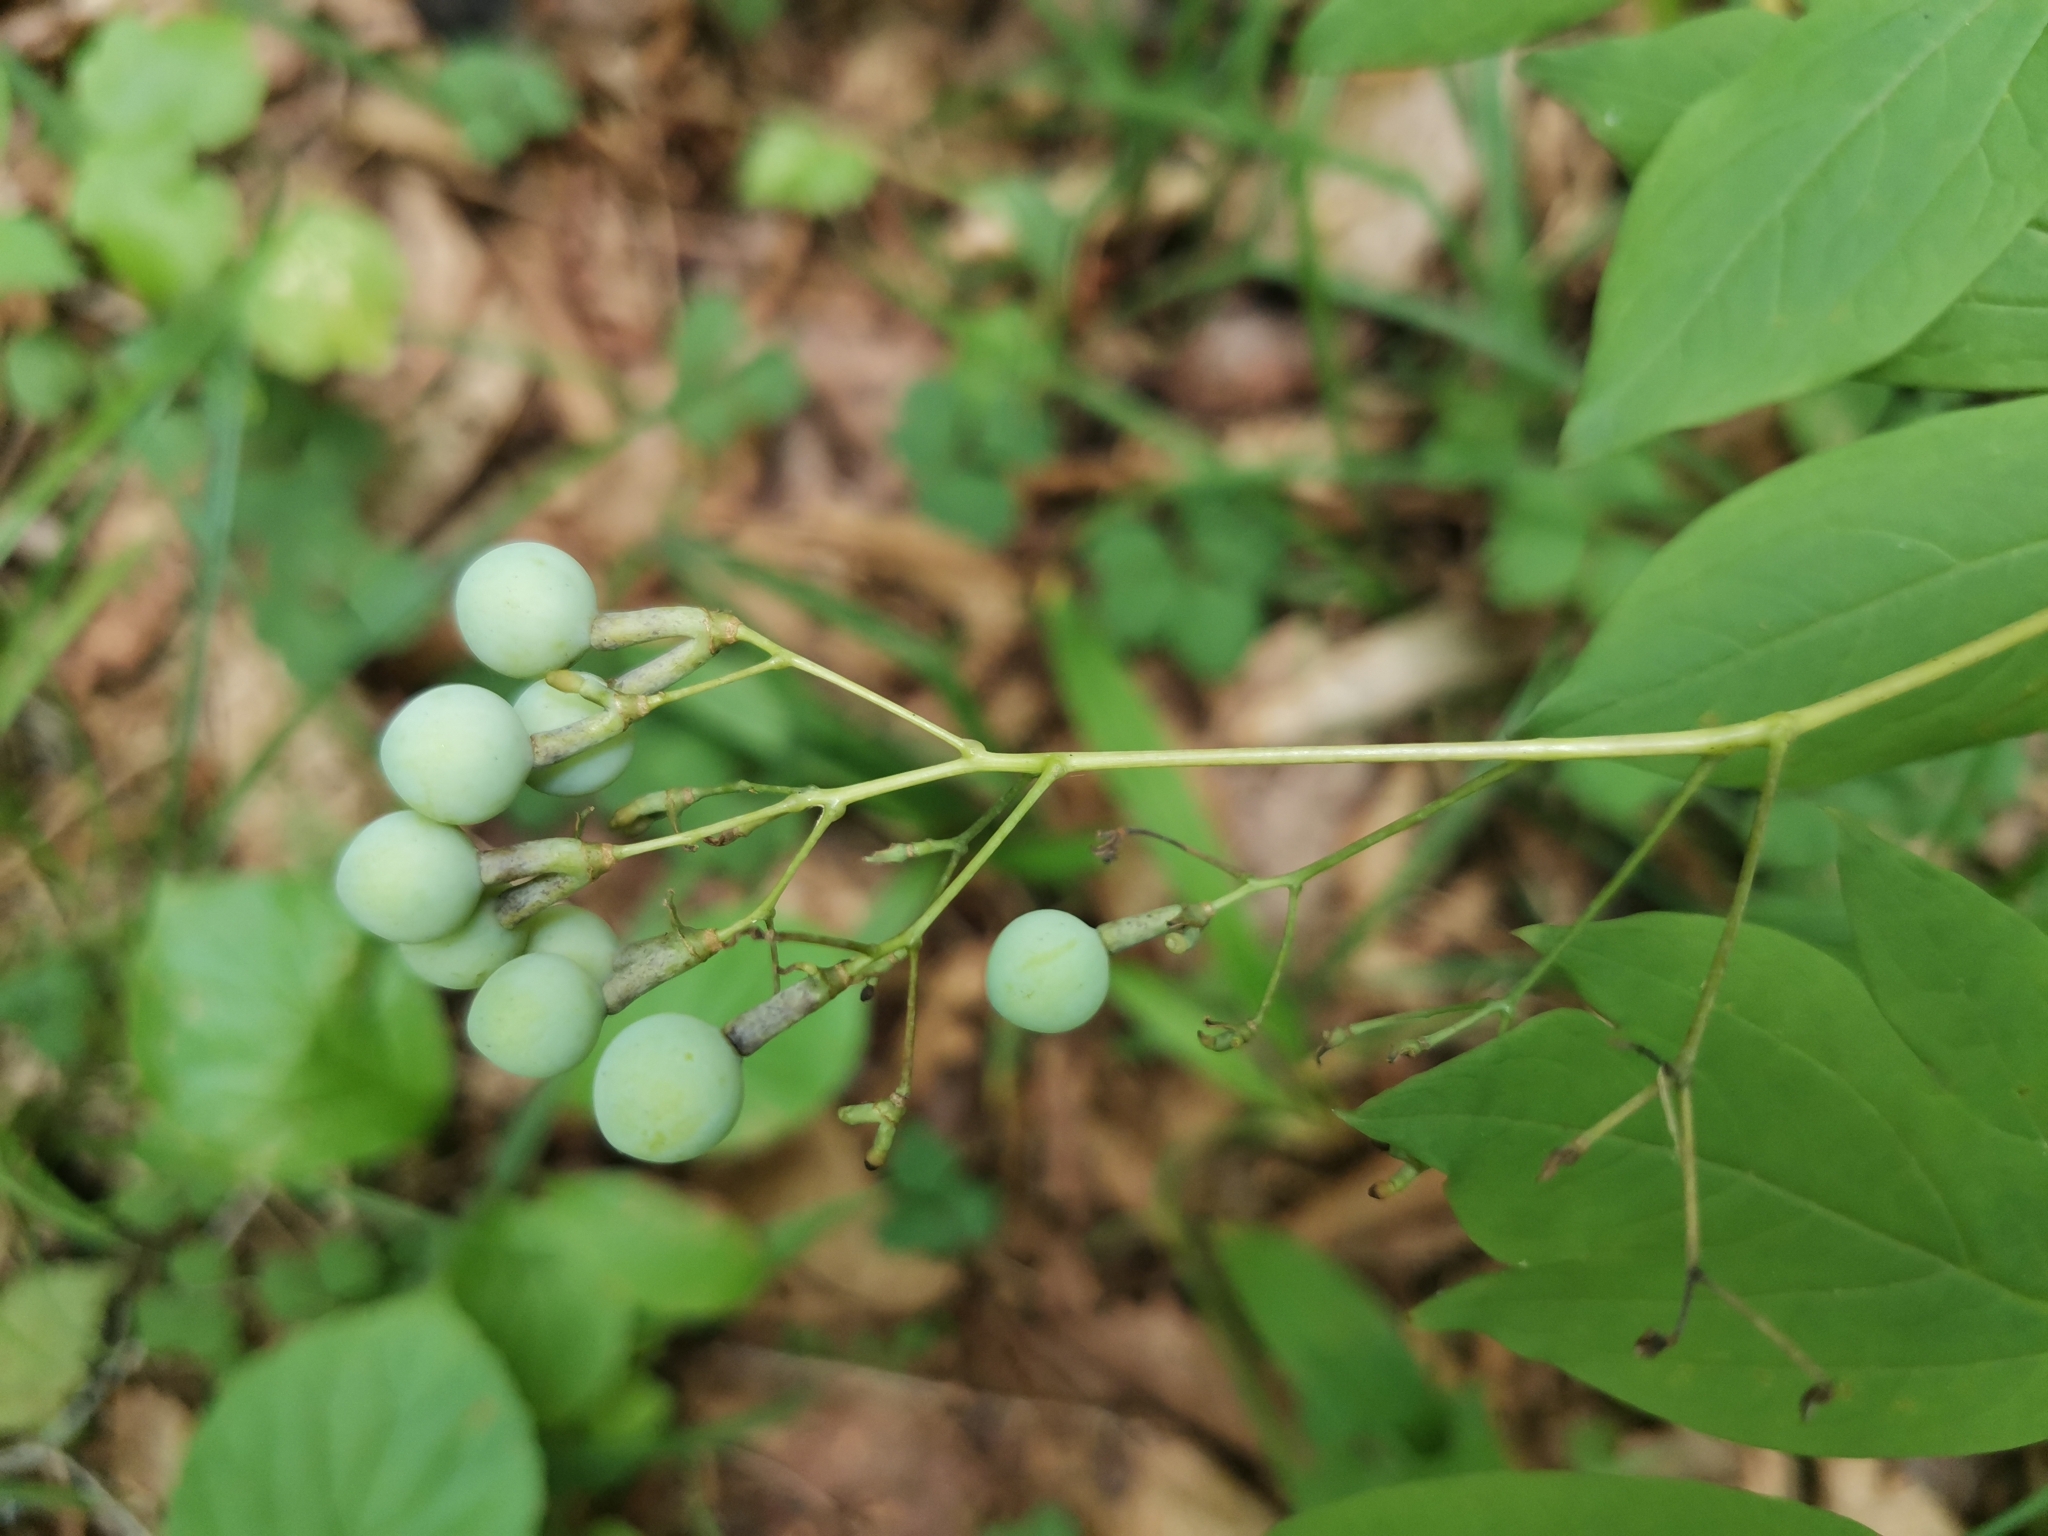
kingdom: Plantae
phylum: Tracheophyta
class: Magnoliopsida
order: Ranunculales
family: Berberidaceae
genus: Caulophyllum
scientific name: Caulophyllum robustum
